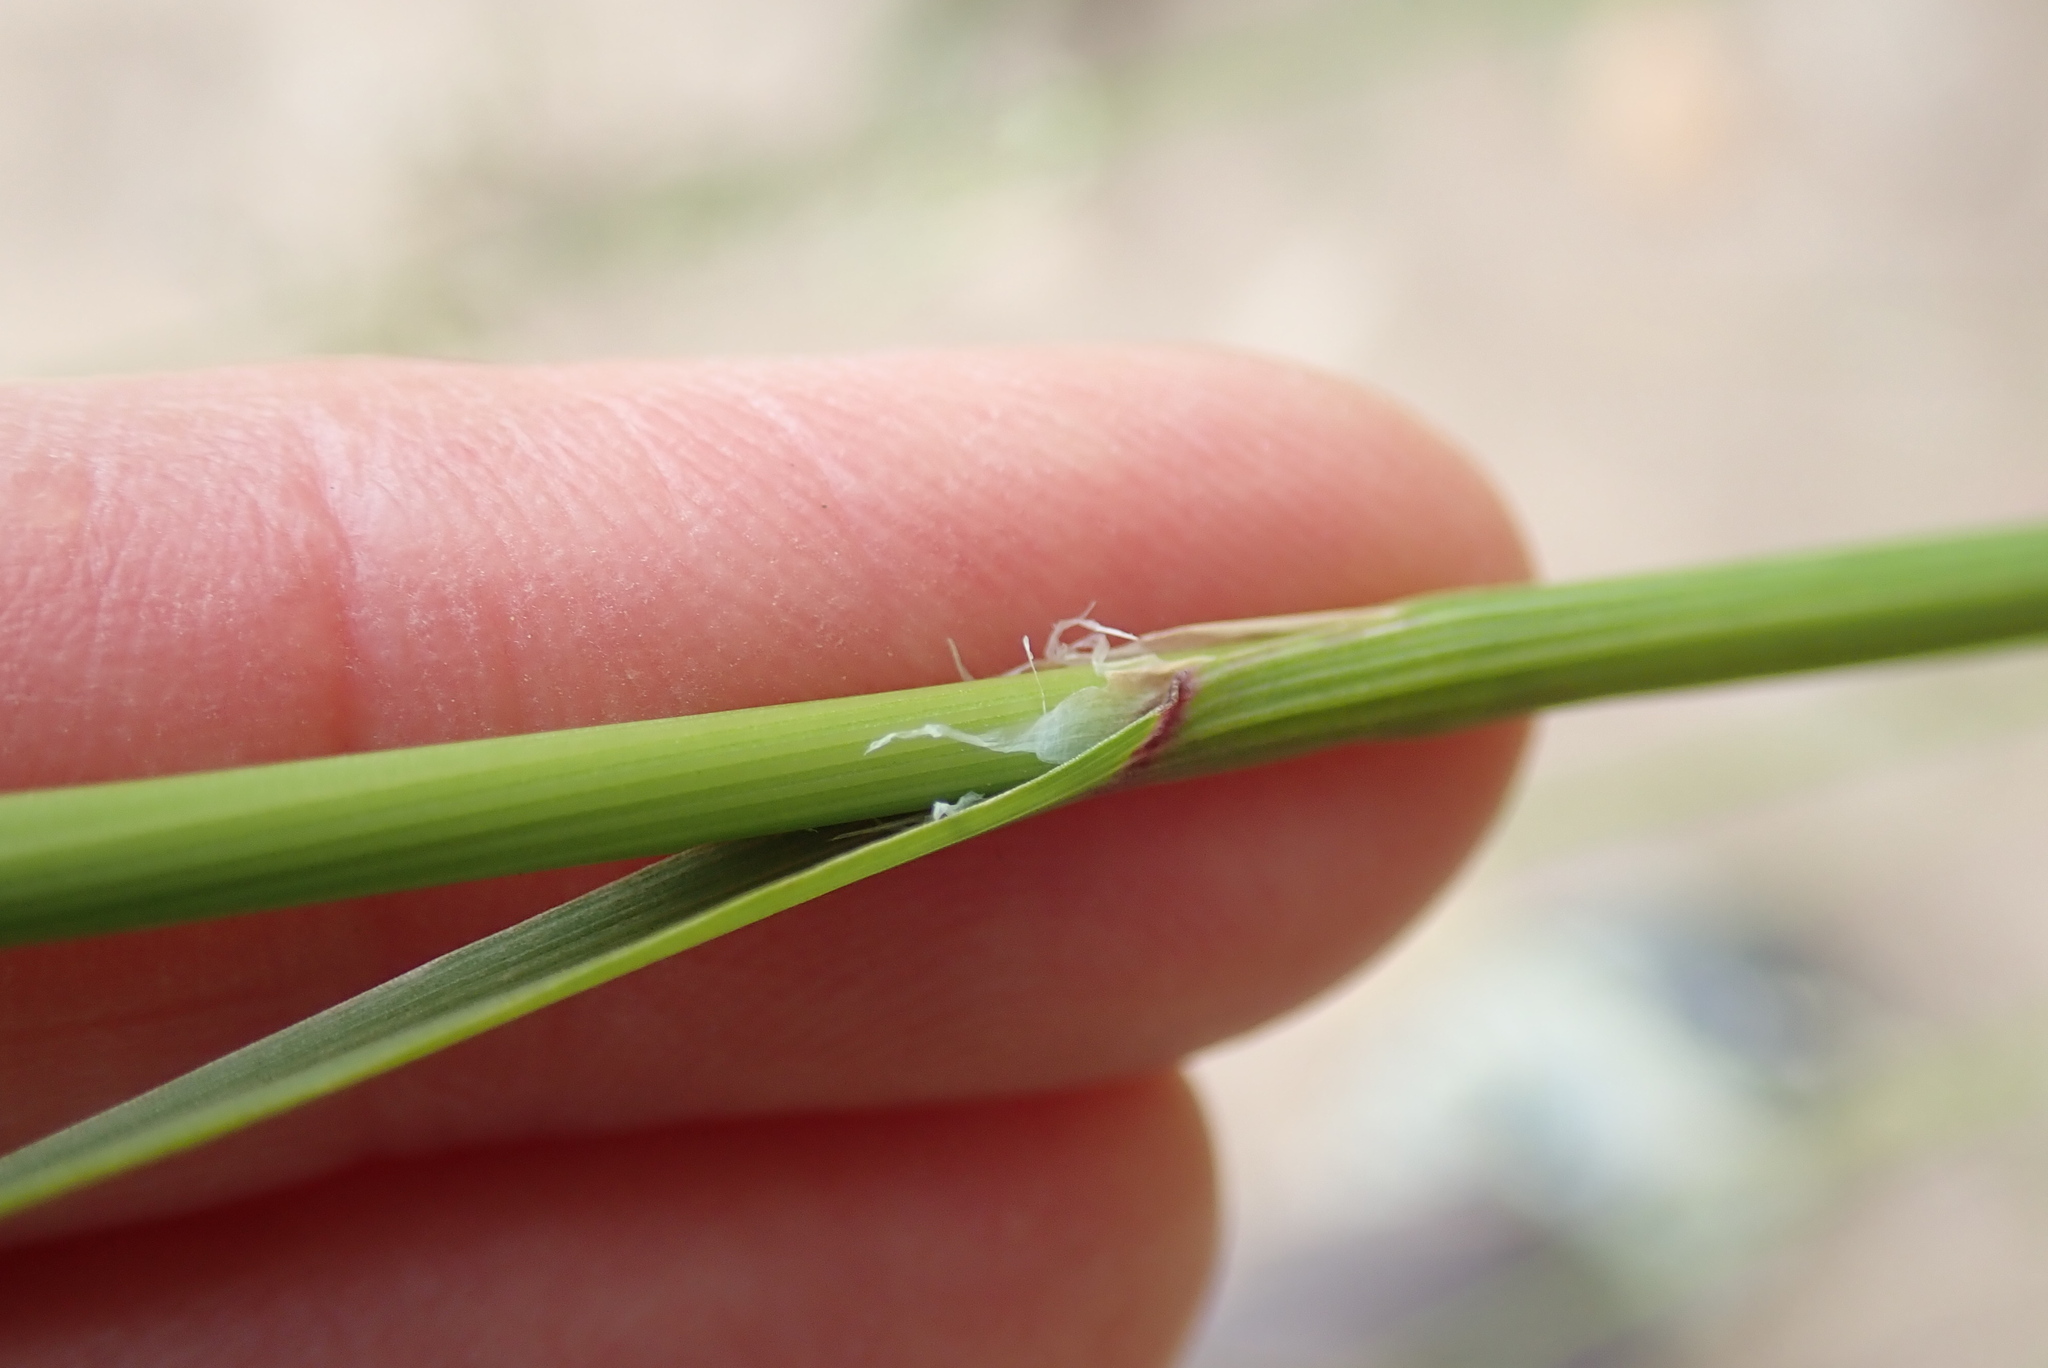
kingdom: Plantae
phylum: Tracheophyta
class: Liliopsida
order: Poales
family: Poaceae
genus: Melica
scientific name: Melica imperfecta
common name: California melic
